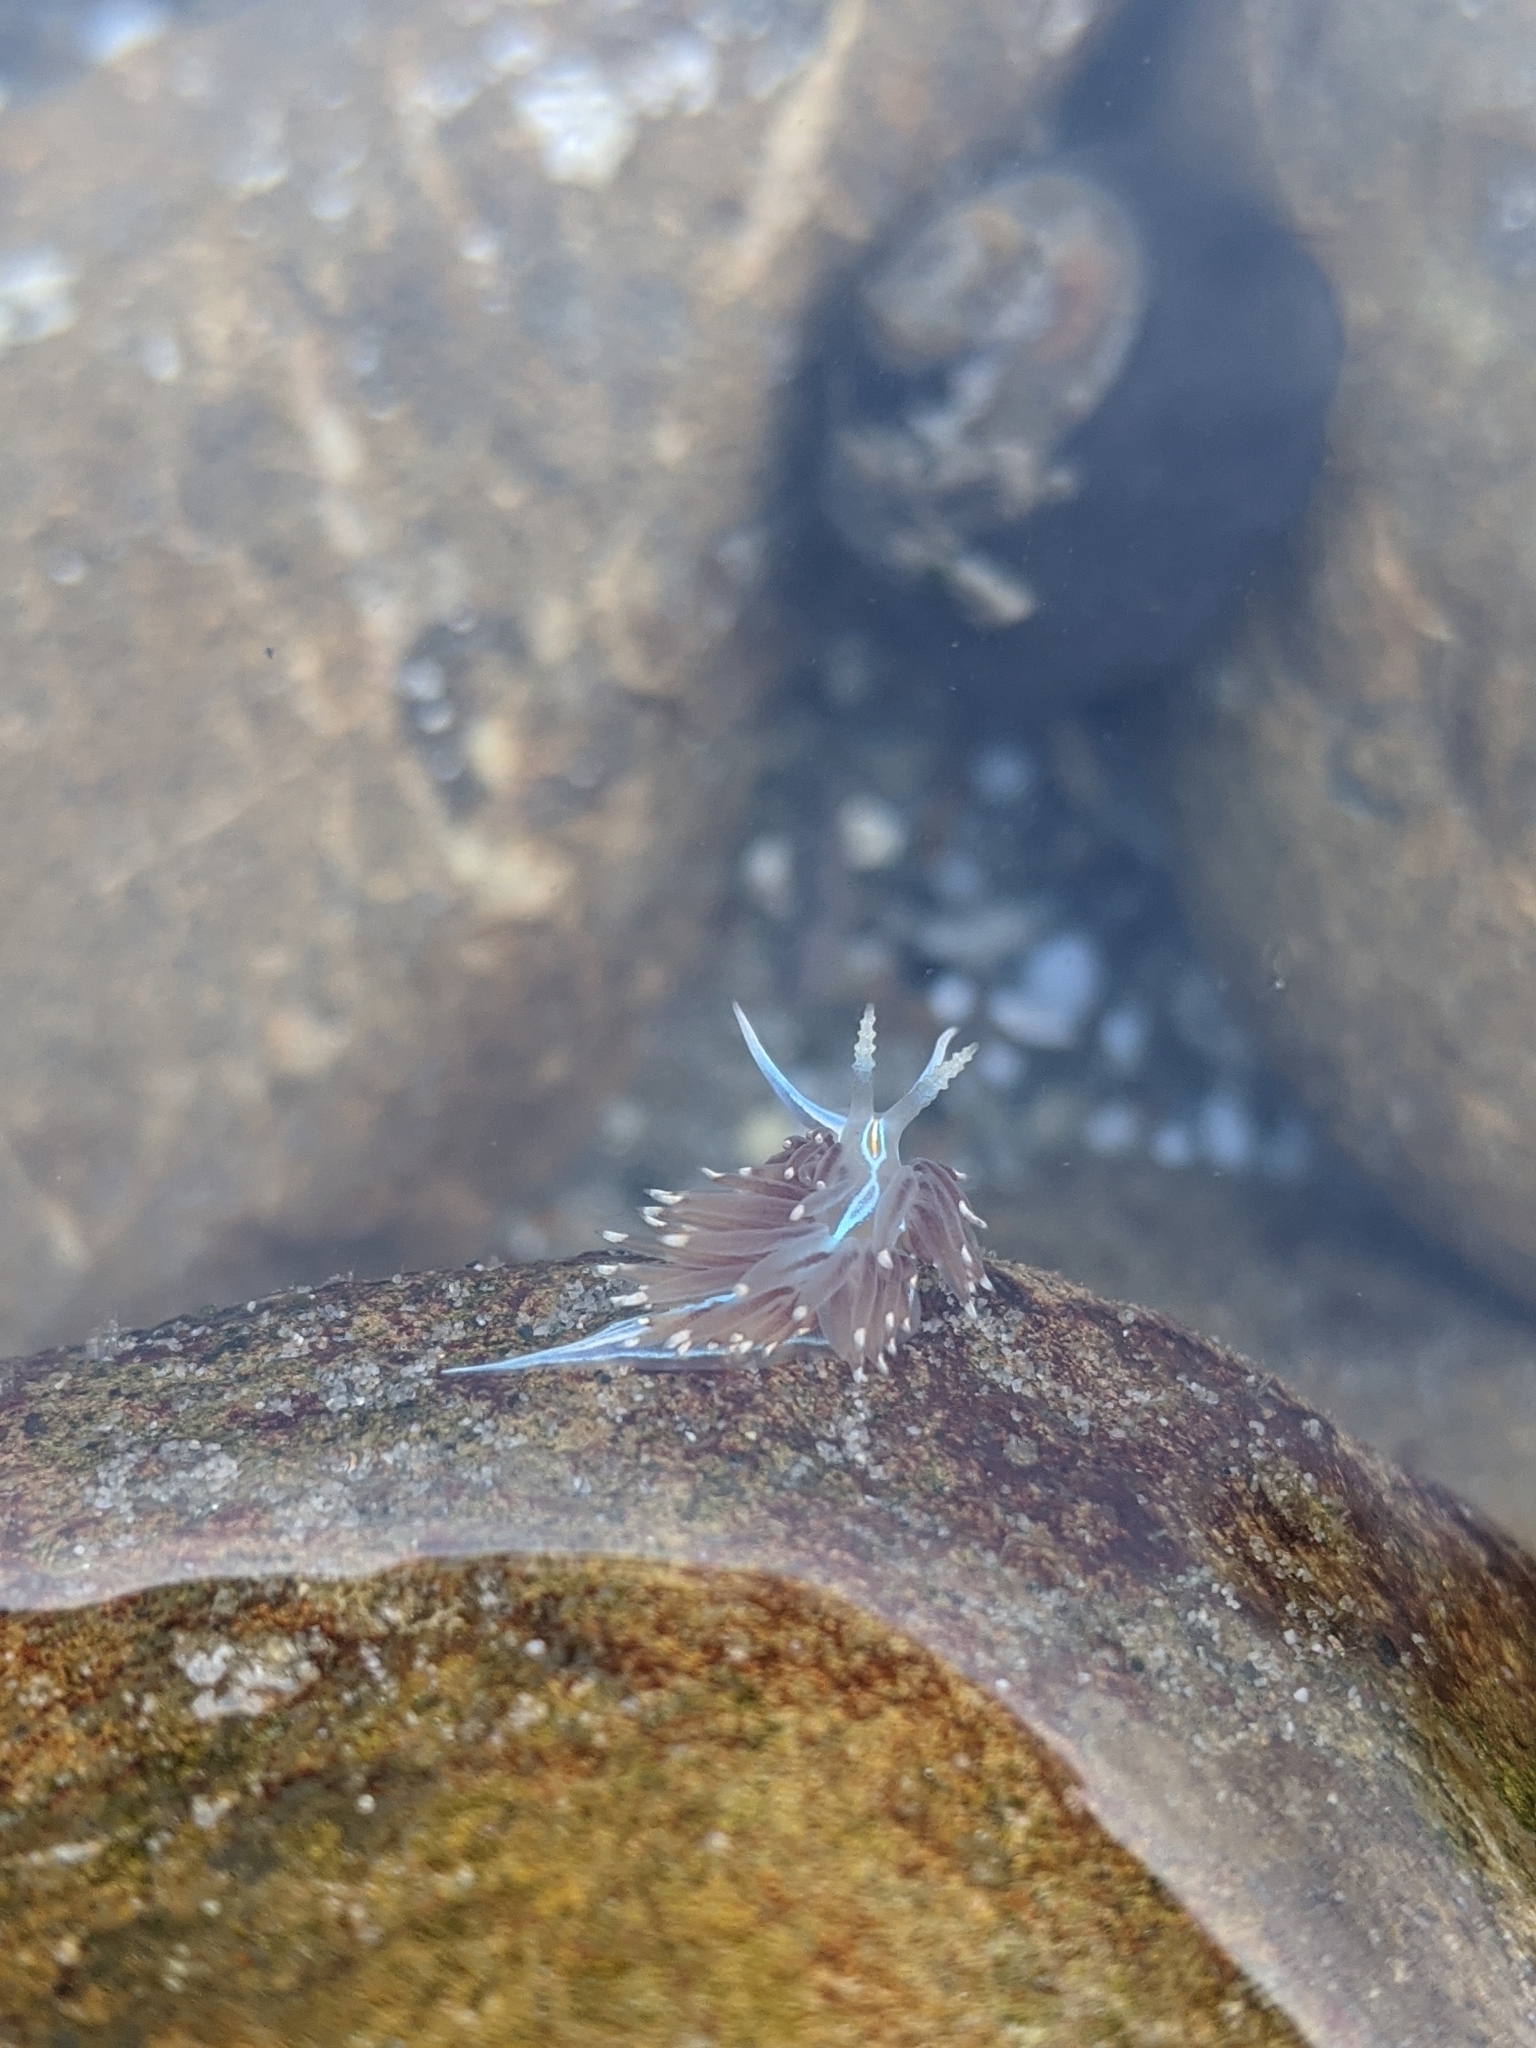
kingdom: Animalia
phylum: Mollusca
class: Gastropoda
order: Nudibranchia
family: Myrrhinidae
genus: Hermissenda
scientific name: Hermissenda opalescens
